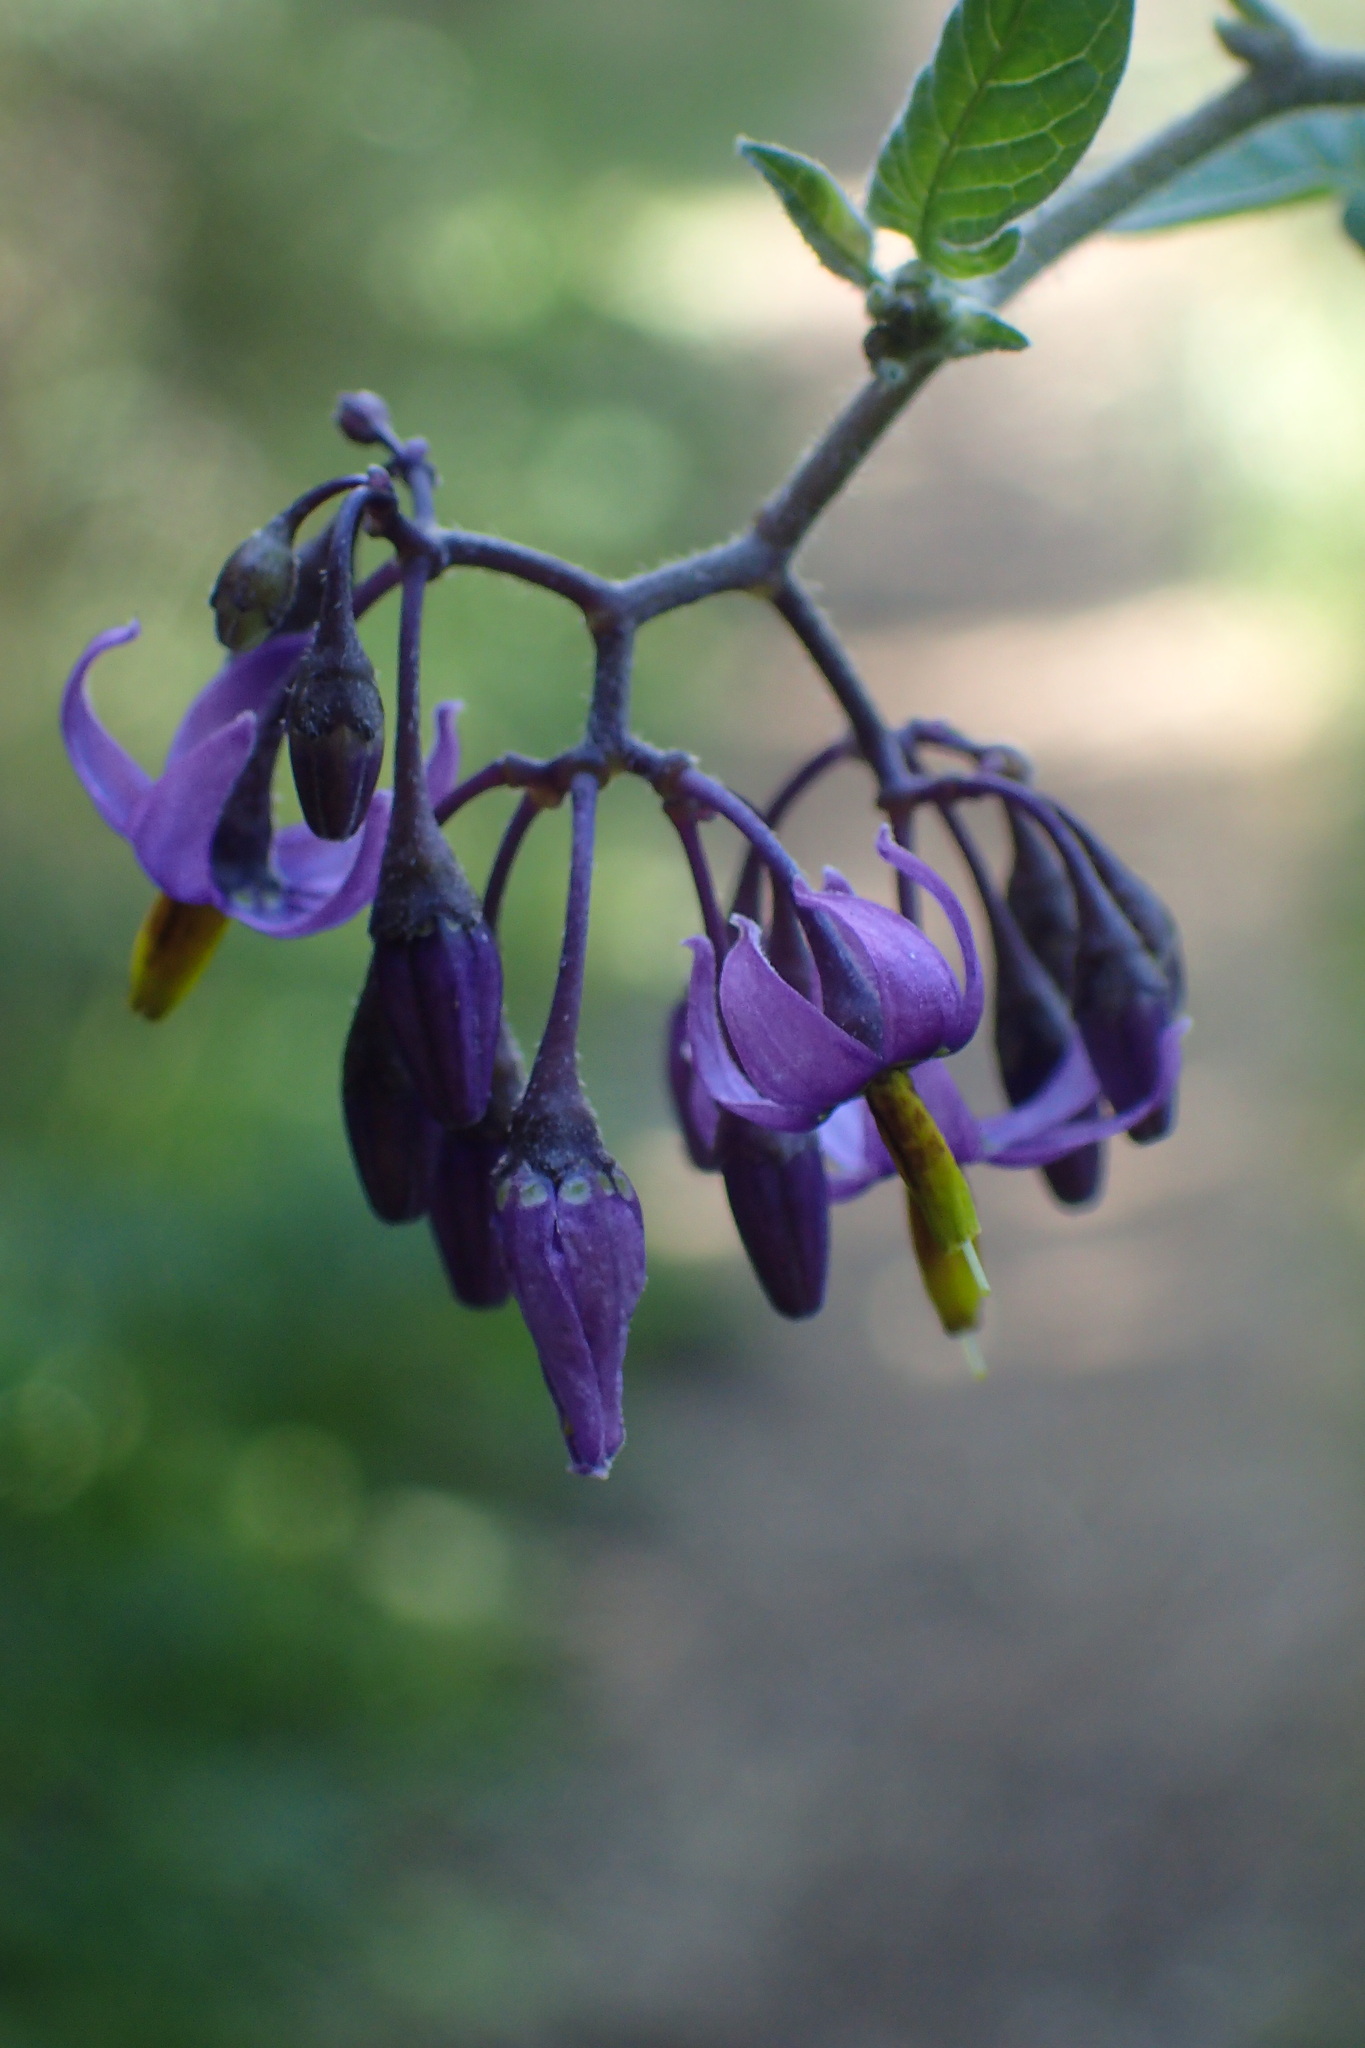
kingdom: Plantae
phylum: Tracheophyta
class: Magnoliopsida
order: Solanales
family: Solanaceae
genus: Solanum
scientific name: Solanum dulcamara
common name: Climbing nightshade
